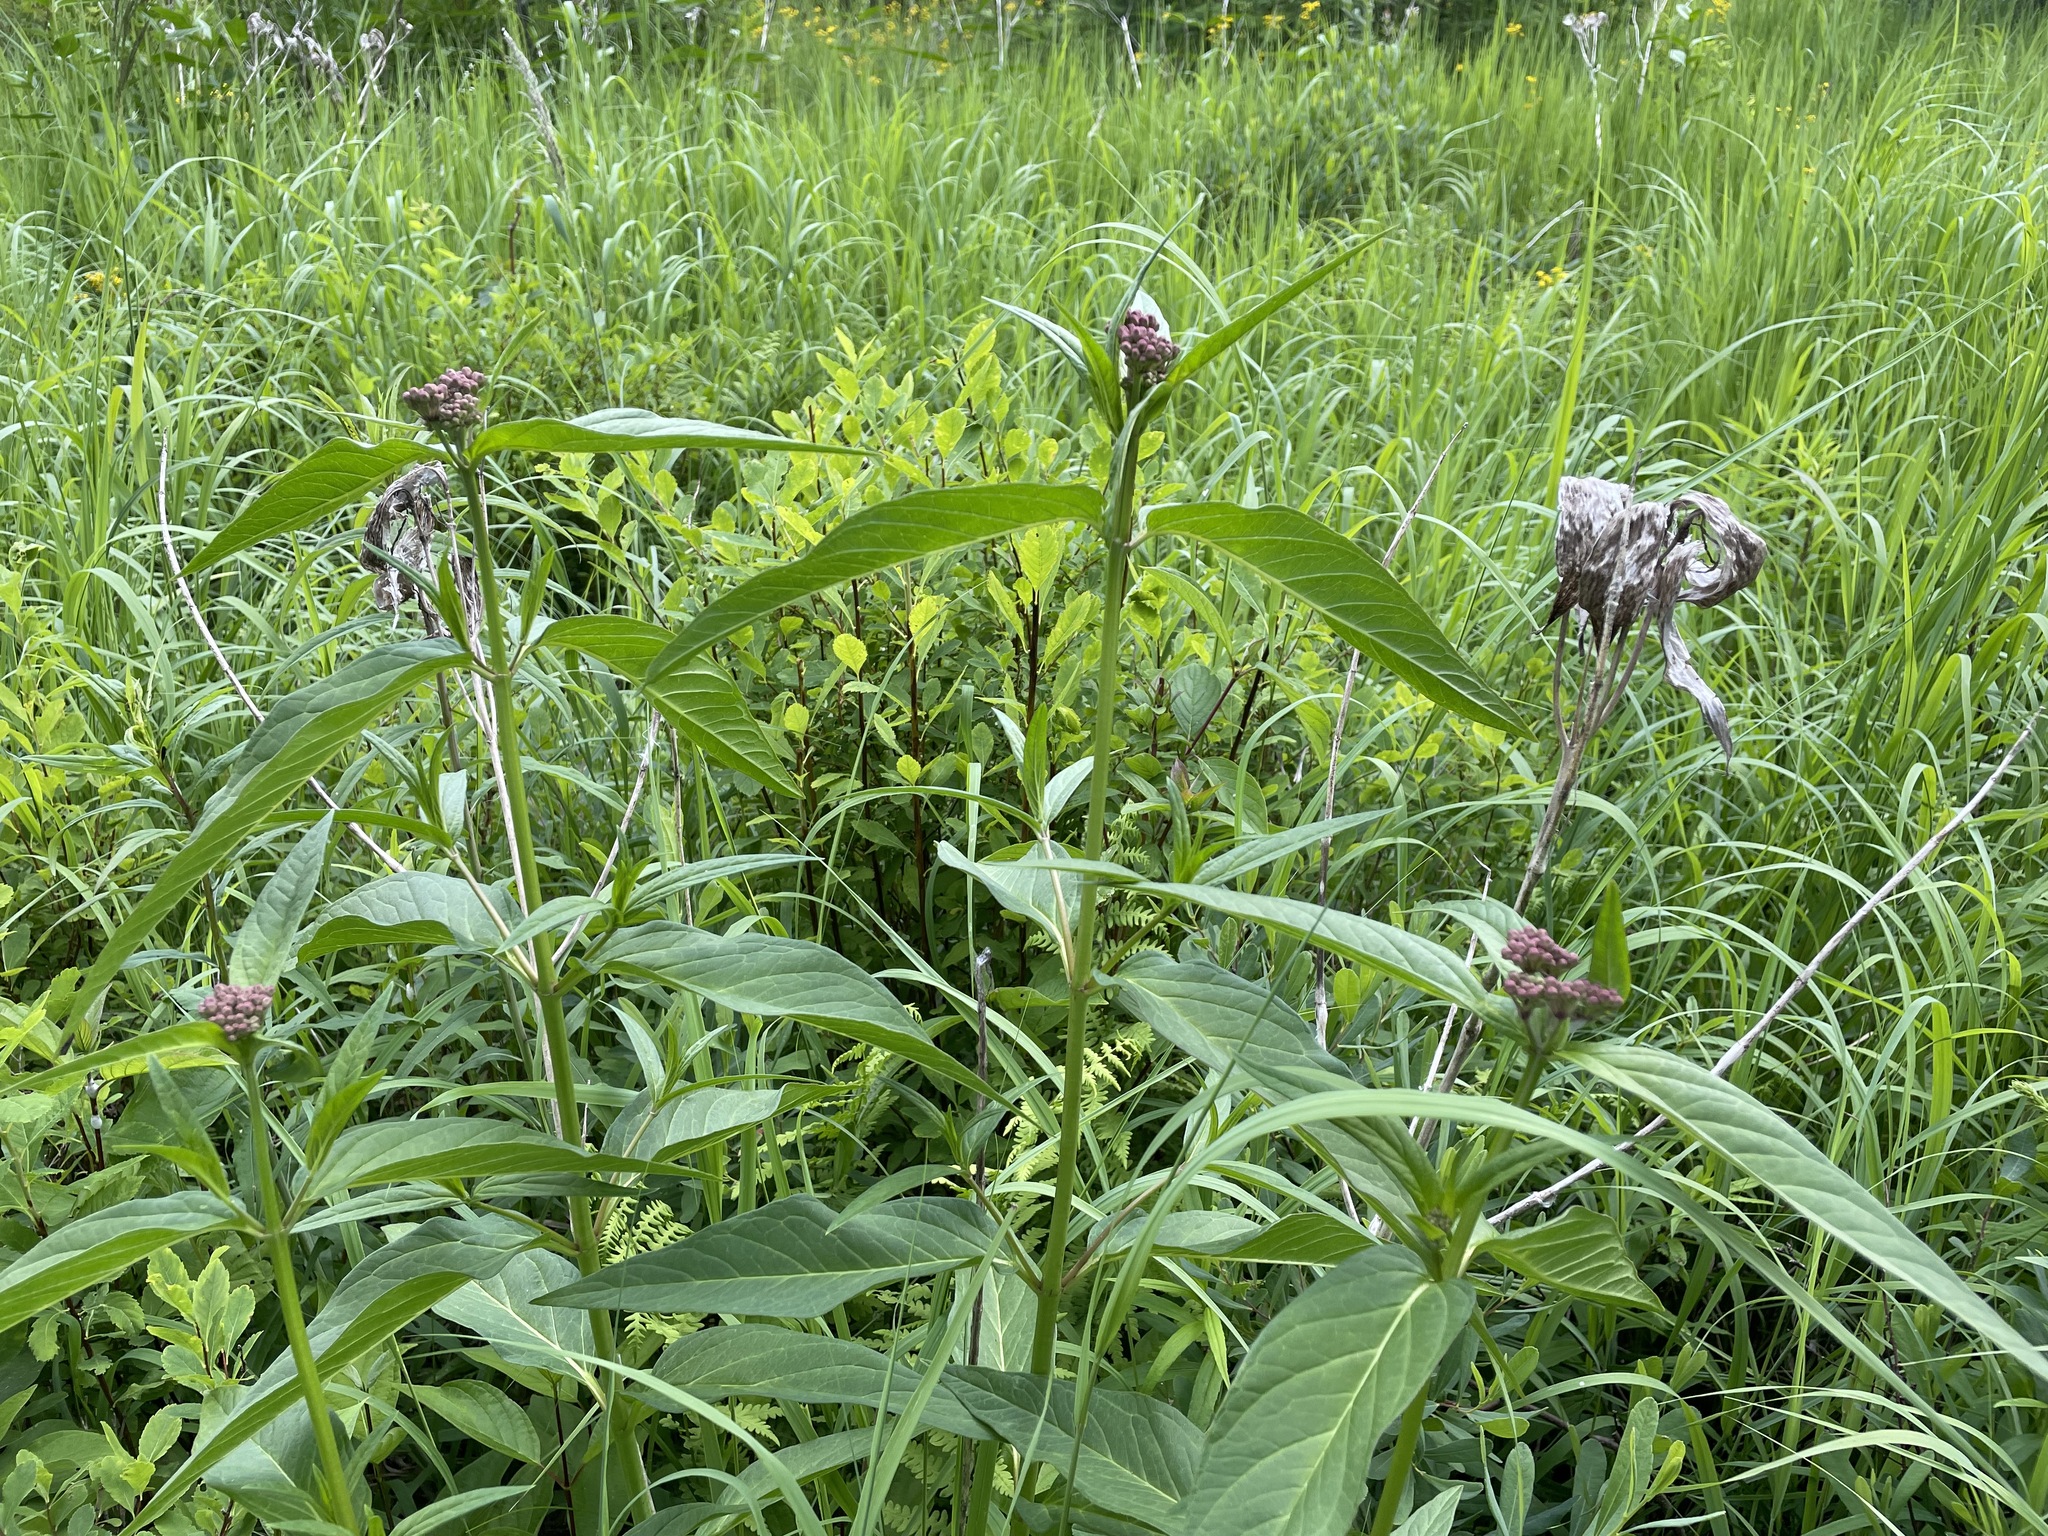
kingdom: Plantae
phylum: Tracheophyta
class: Magnoliopsida
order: Gentianales
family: Apocynaceae
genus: Asclepias
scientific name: Asclepias incarnata
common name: Swamp milkweed
